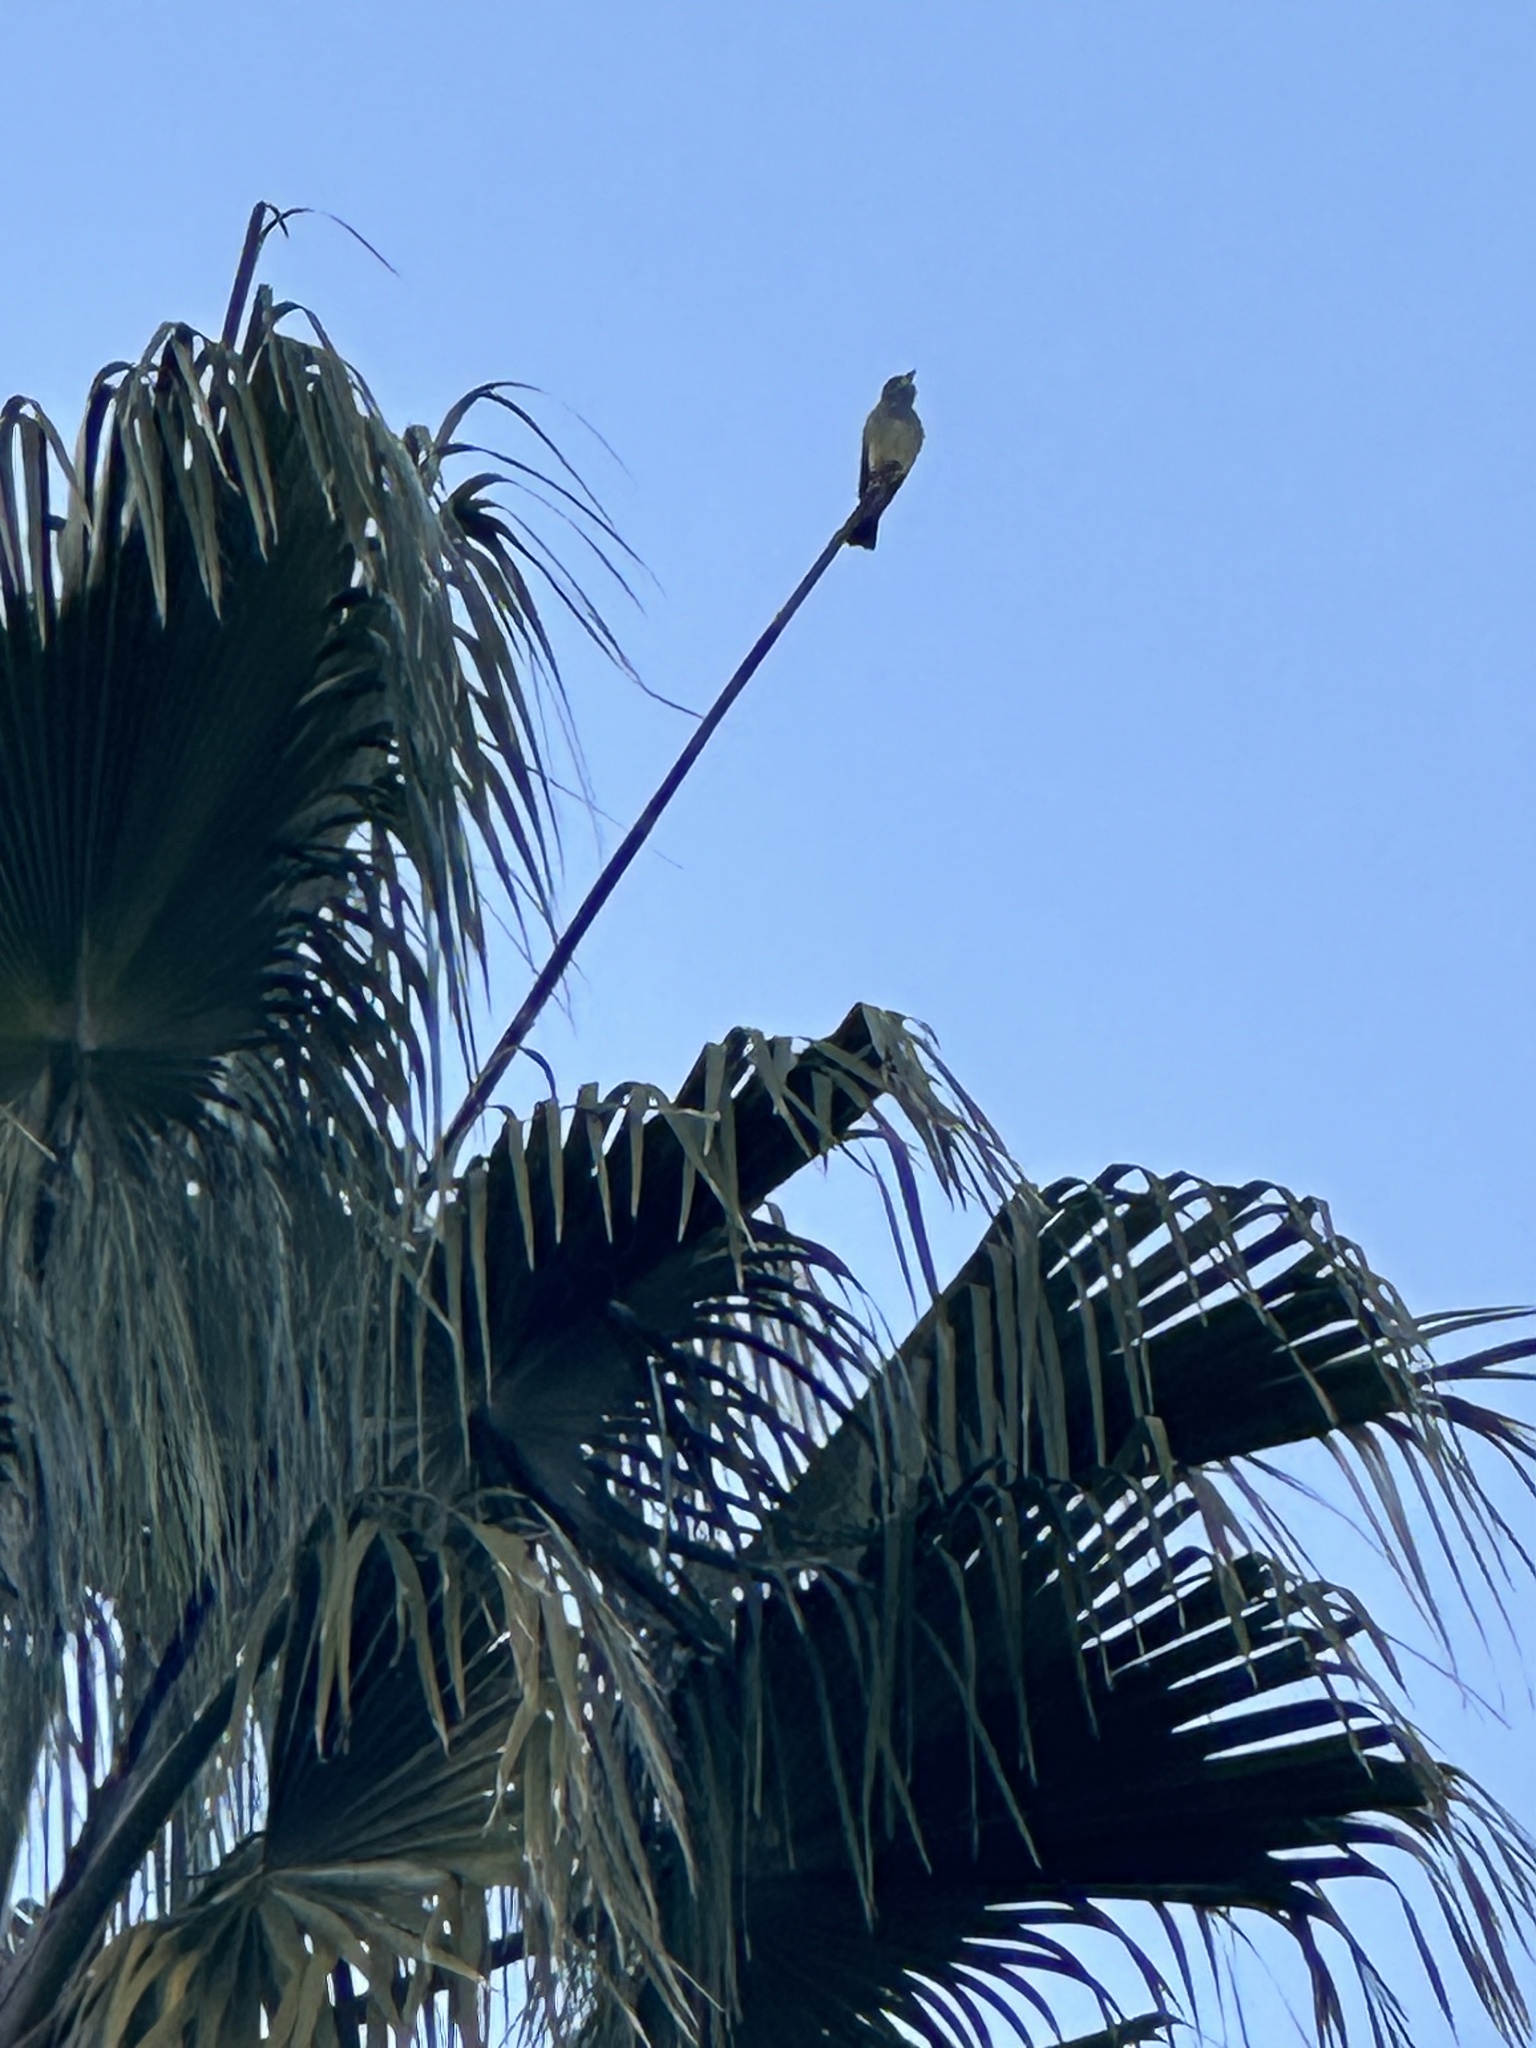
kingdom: Animalia
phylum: Chordata
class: Aves
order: Passeriformes
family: Tyrannidae
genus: Tyrannus
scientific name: Tyrannus vociferans
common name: Cassin's kingbird
